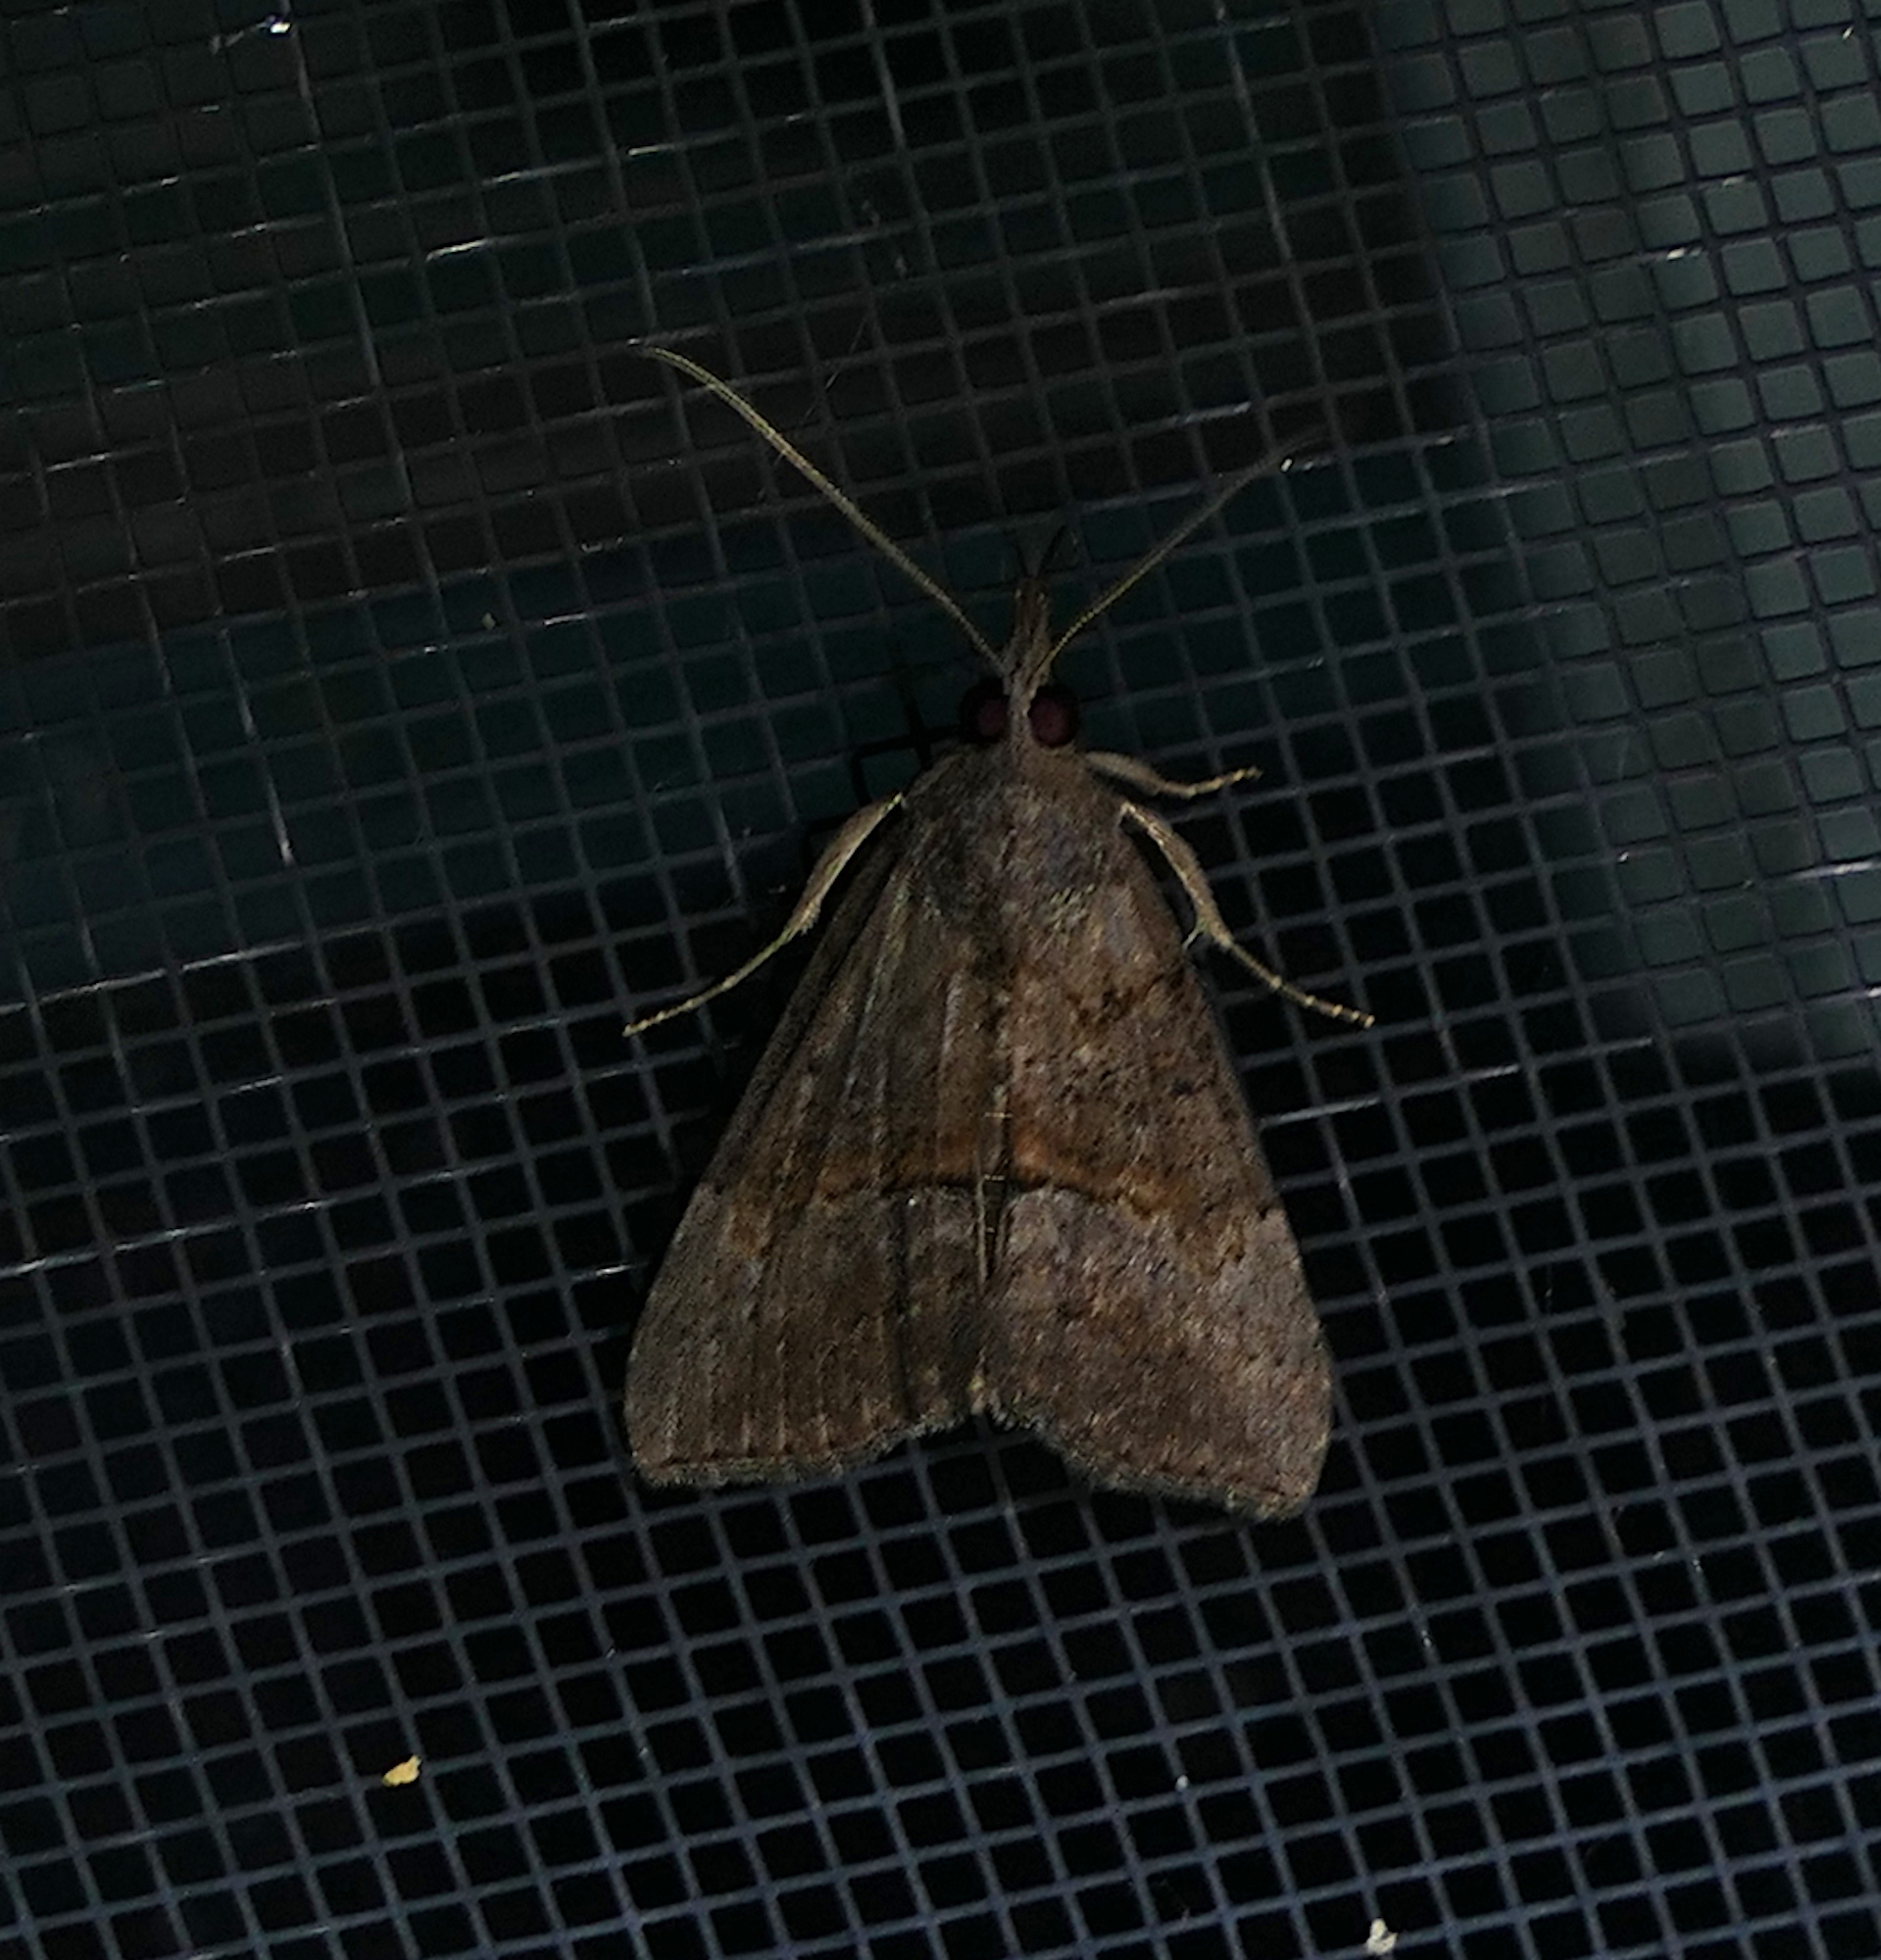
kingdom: Animalia
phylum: Arthropoda
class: Insecta
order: Lepidoptera
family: Erebidae
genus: Hypena
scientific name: Hypena scabra
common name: Green cloverworm
